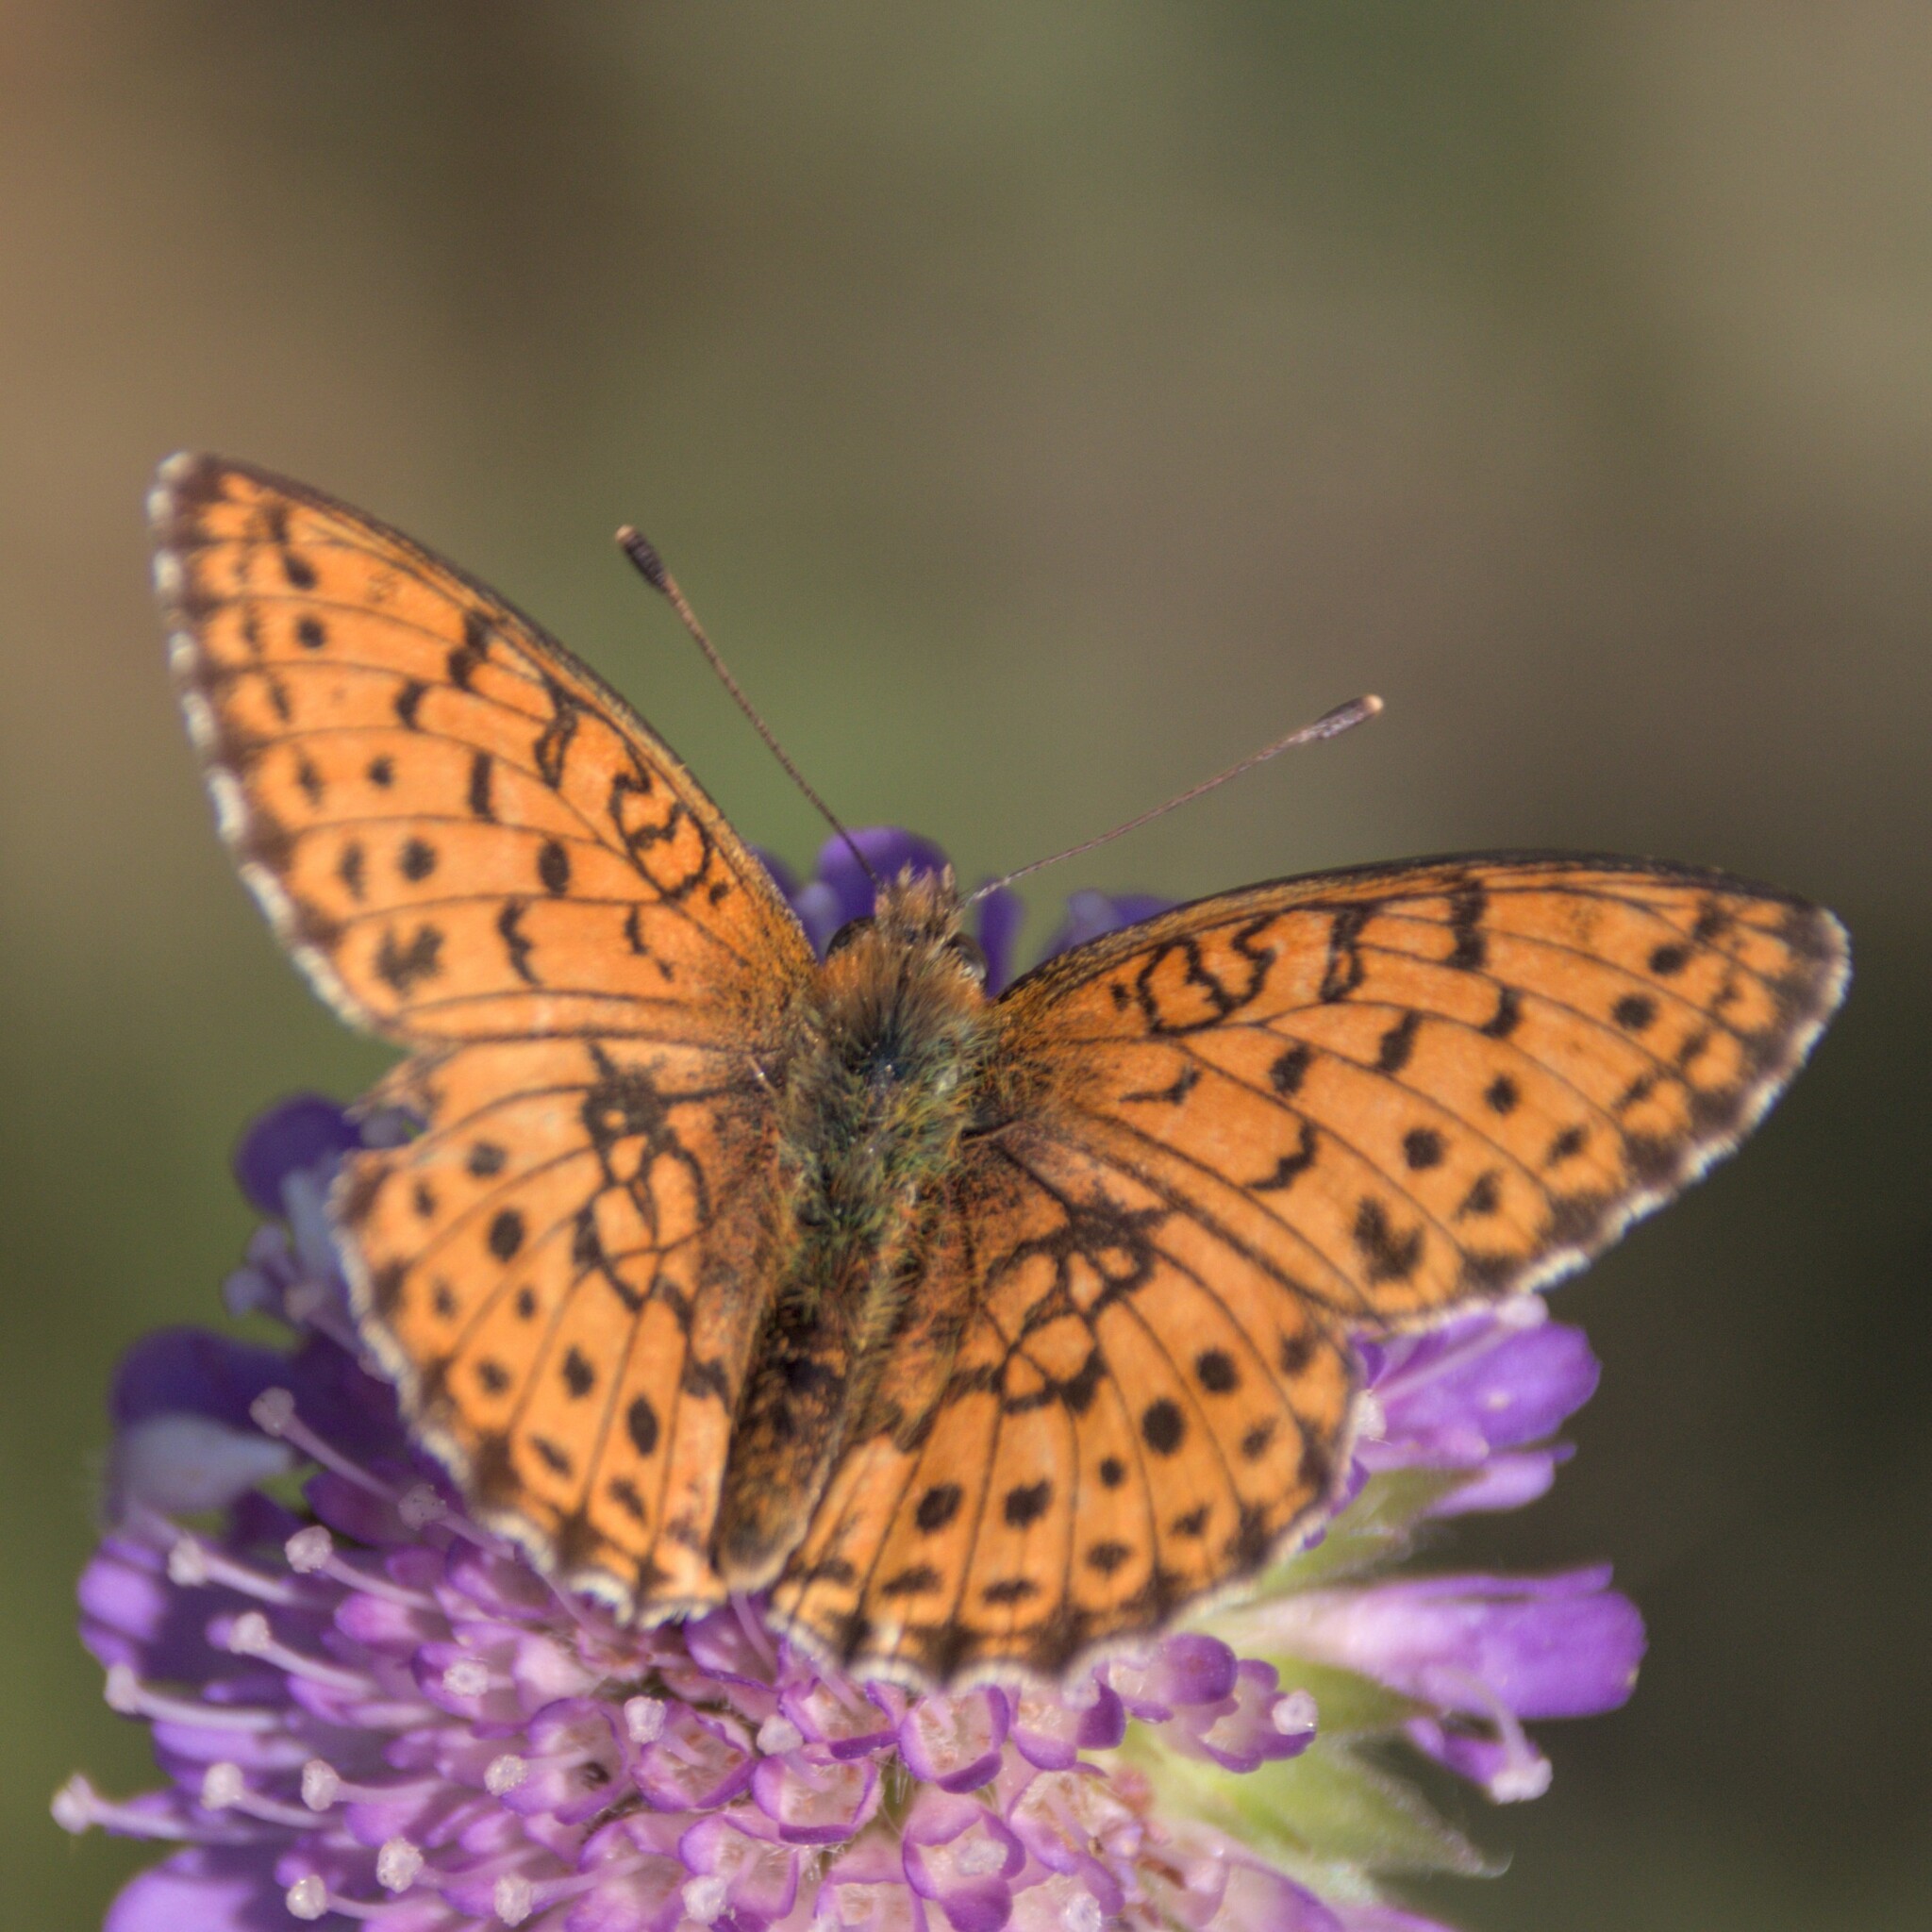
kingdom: Animalia
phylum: Arthropoda
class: Insecta
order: Lepidoptera
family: Nymphalidae
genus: Brenthis
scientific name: Brenthis ino
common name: Lesser marbled fritillary
